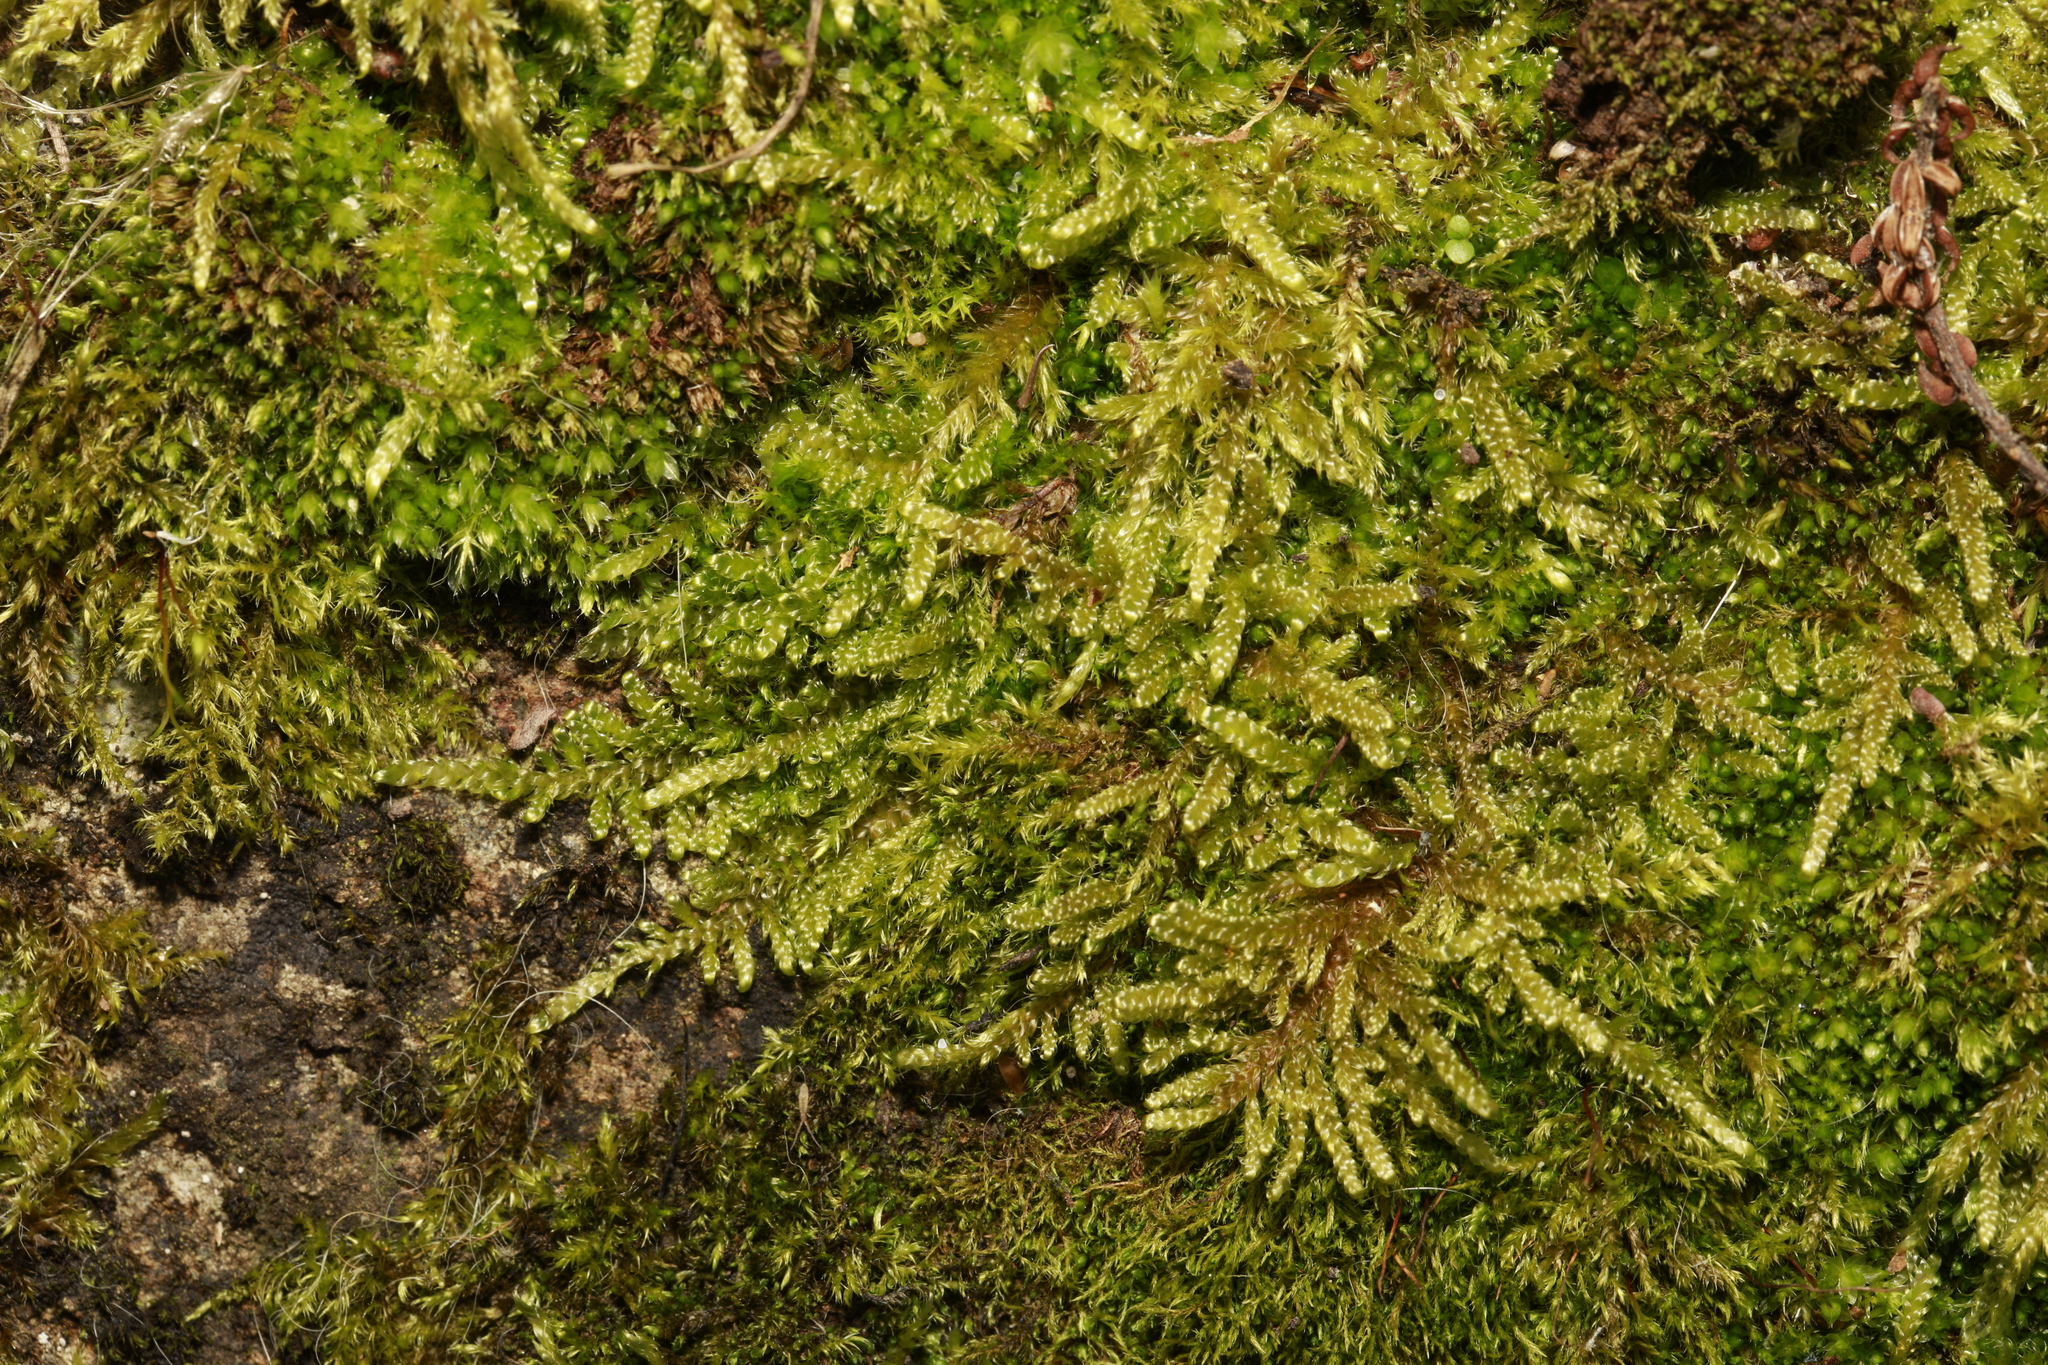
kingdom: Plantae
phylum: Bryophyta
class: Bryopsida
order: Hypnales
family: Hypnaceae
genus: Hypnum
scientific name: Hypnum cupressiforme
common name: Cypress-leaved plait-moss
